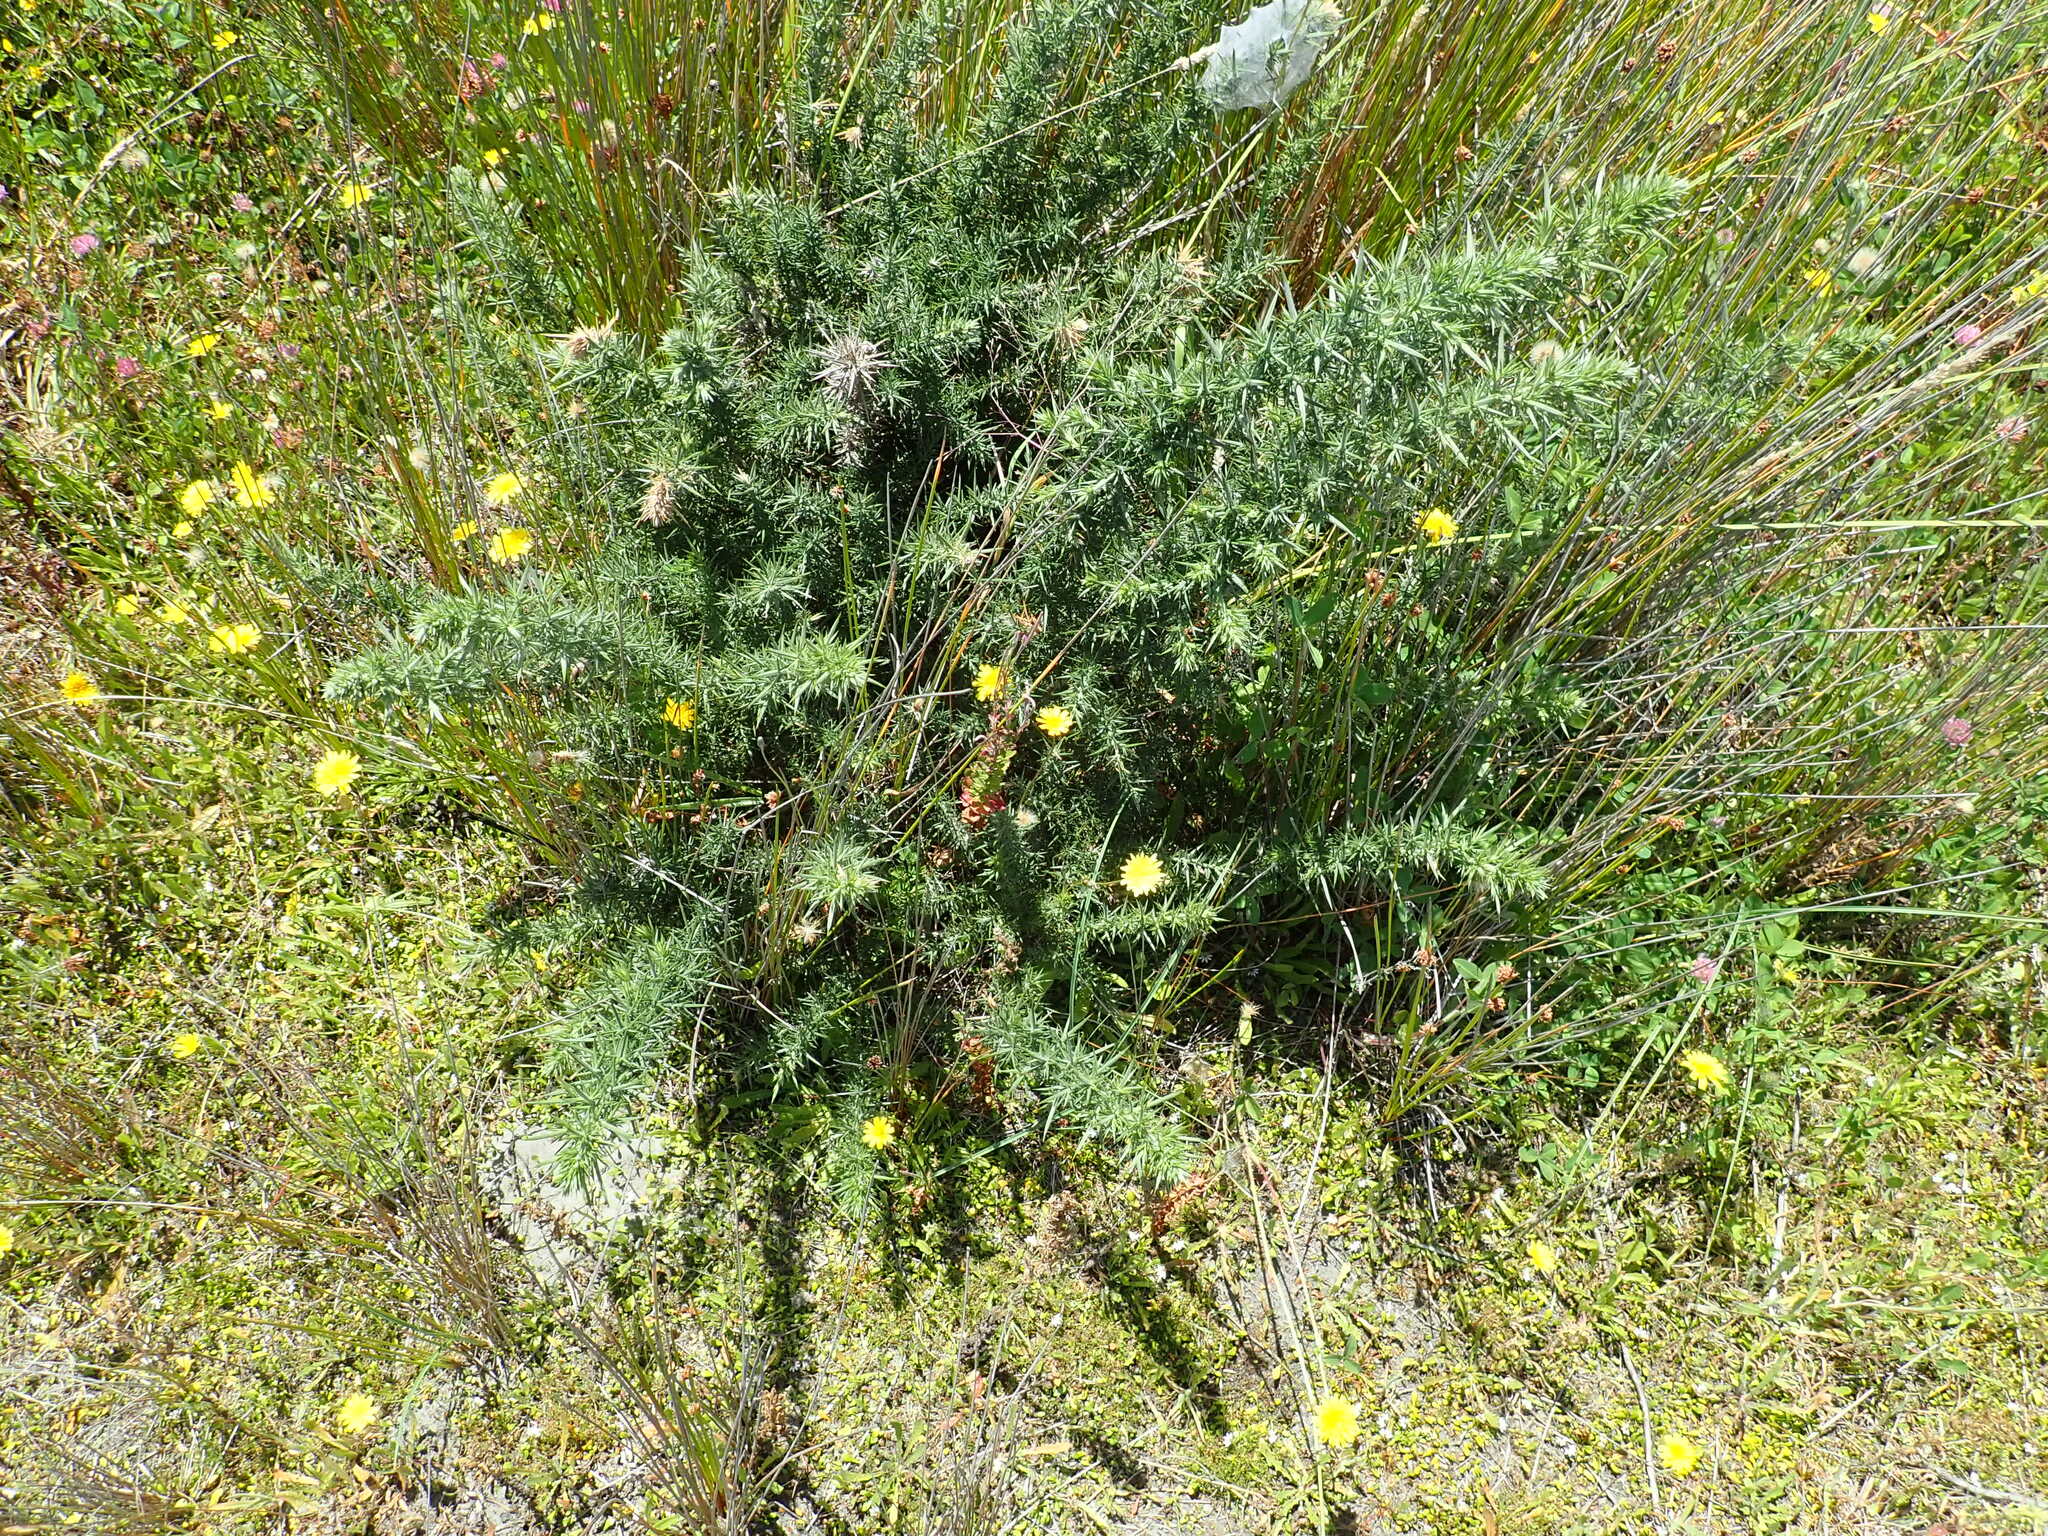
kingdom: Plantae
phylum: Tracheophyta
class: Magnoliopsida
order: Fabales
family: Fabaceae
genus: Ulex
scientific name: Ulex europaeus
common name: Common gorse
